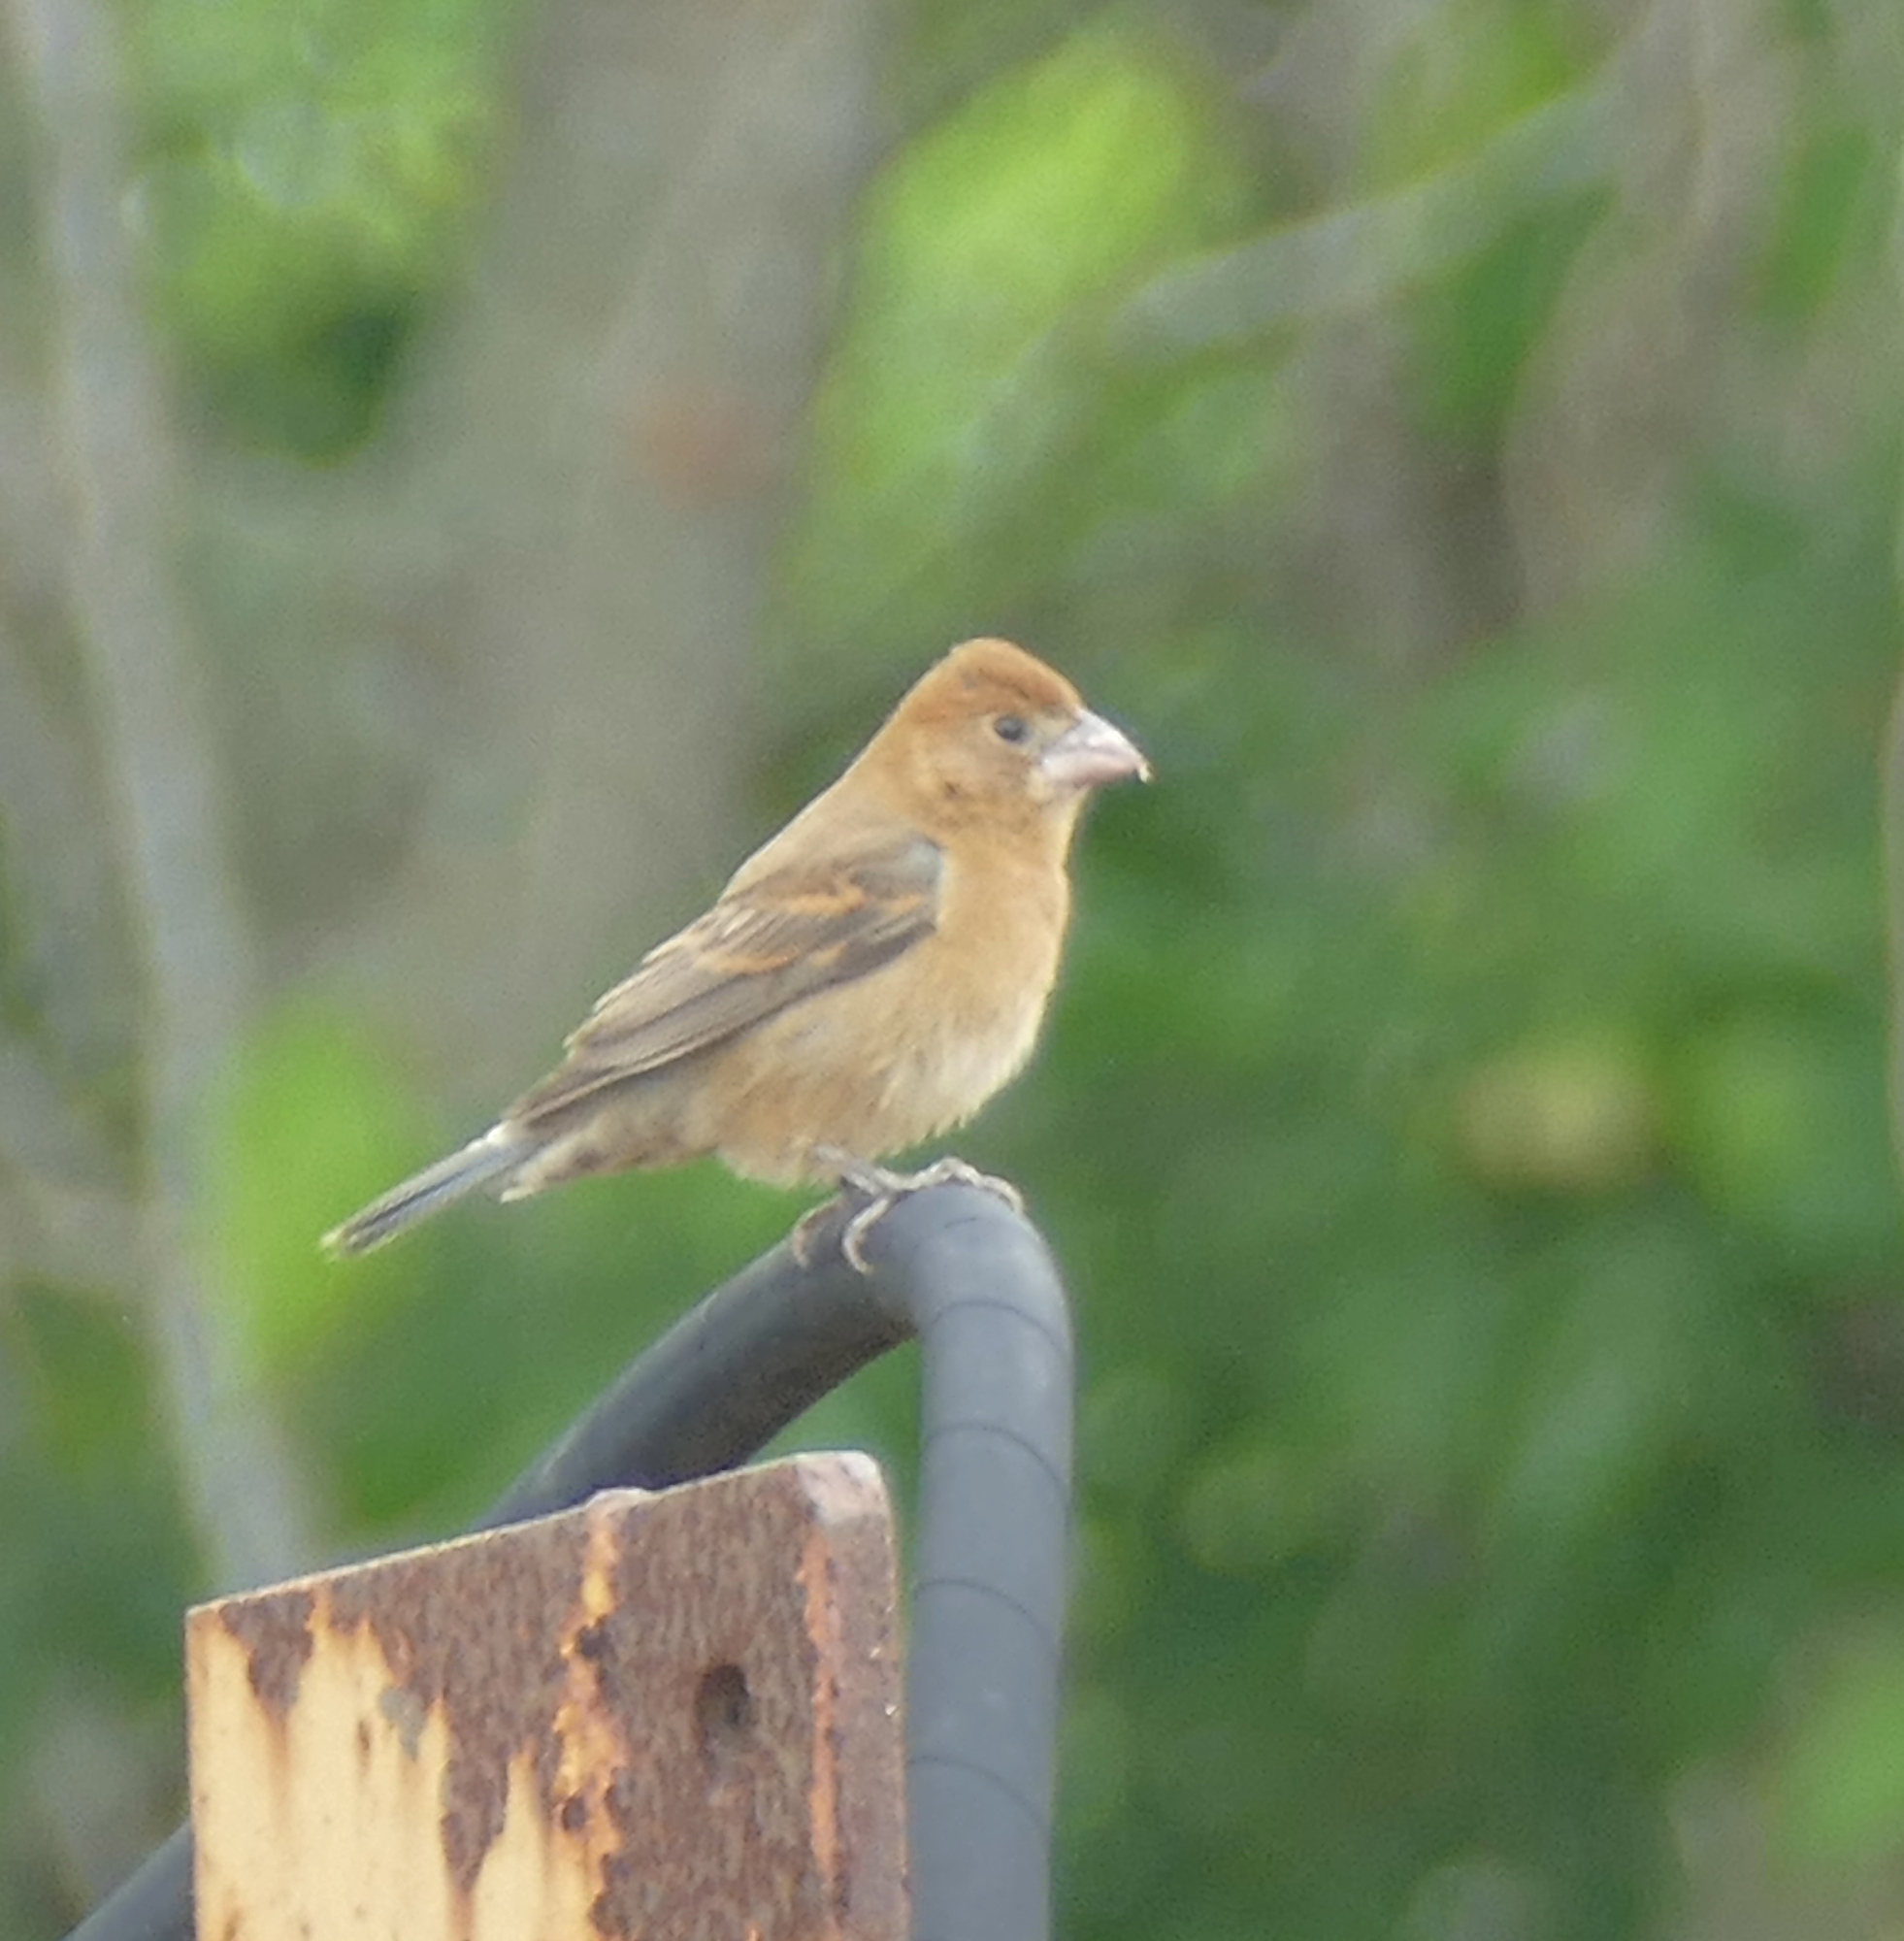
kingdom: Animalia
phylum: Chordata
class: Aves
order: Passeriformes
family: Cardinalidae
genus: Passerina
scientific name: Passerina caerulea
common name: Blue grosbeak
